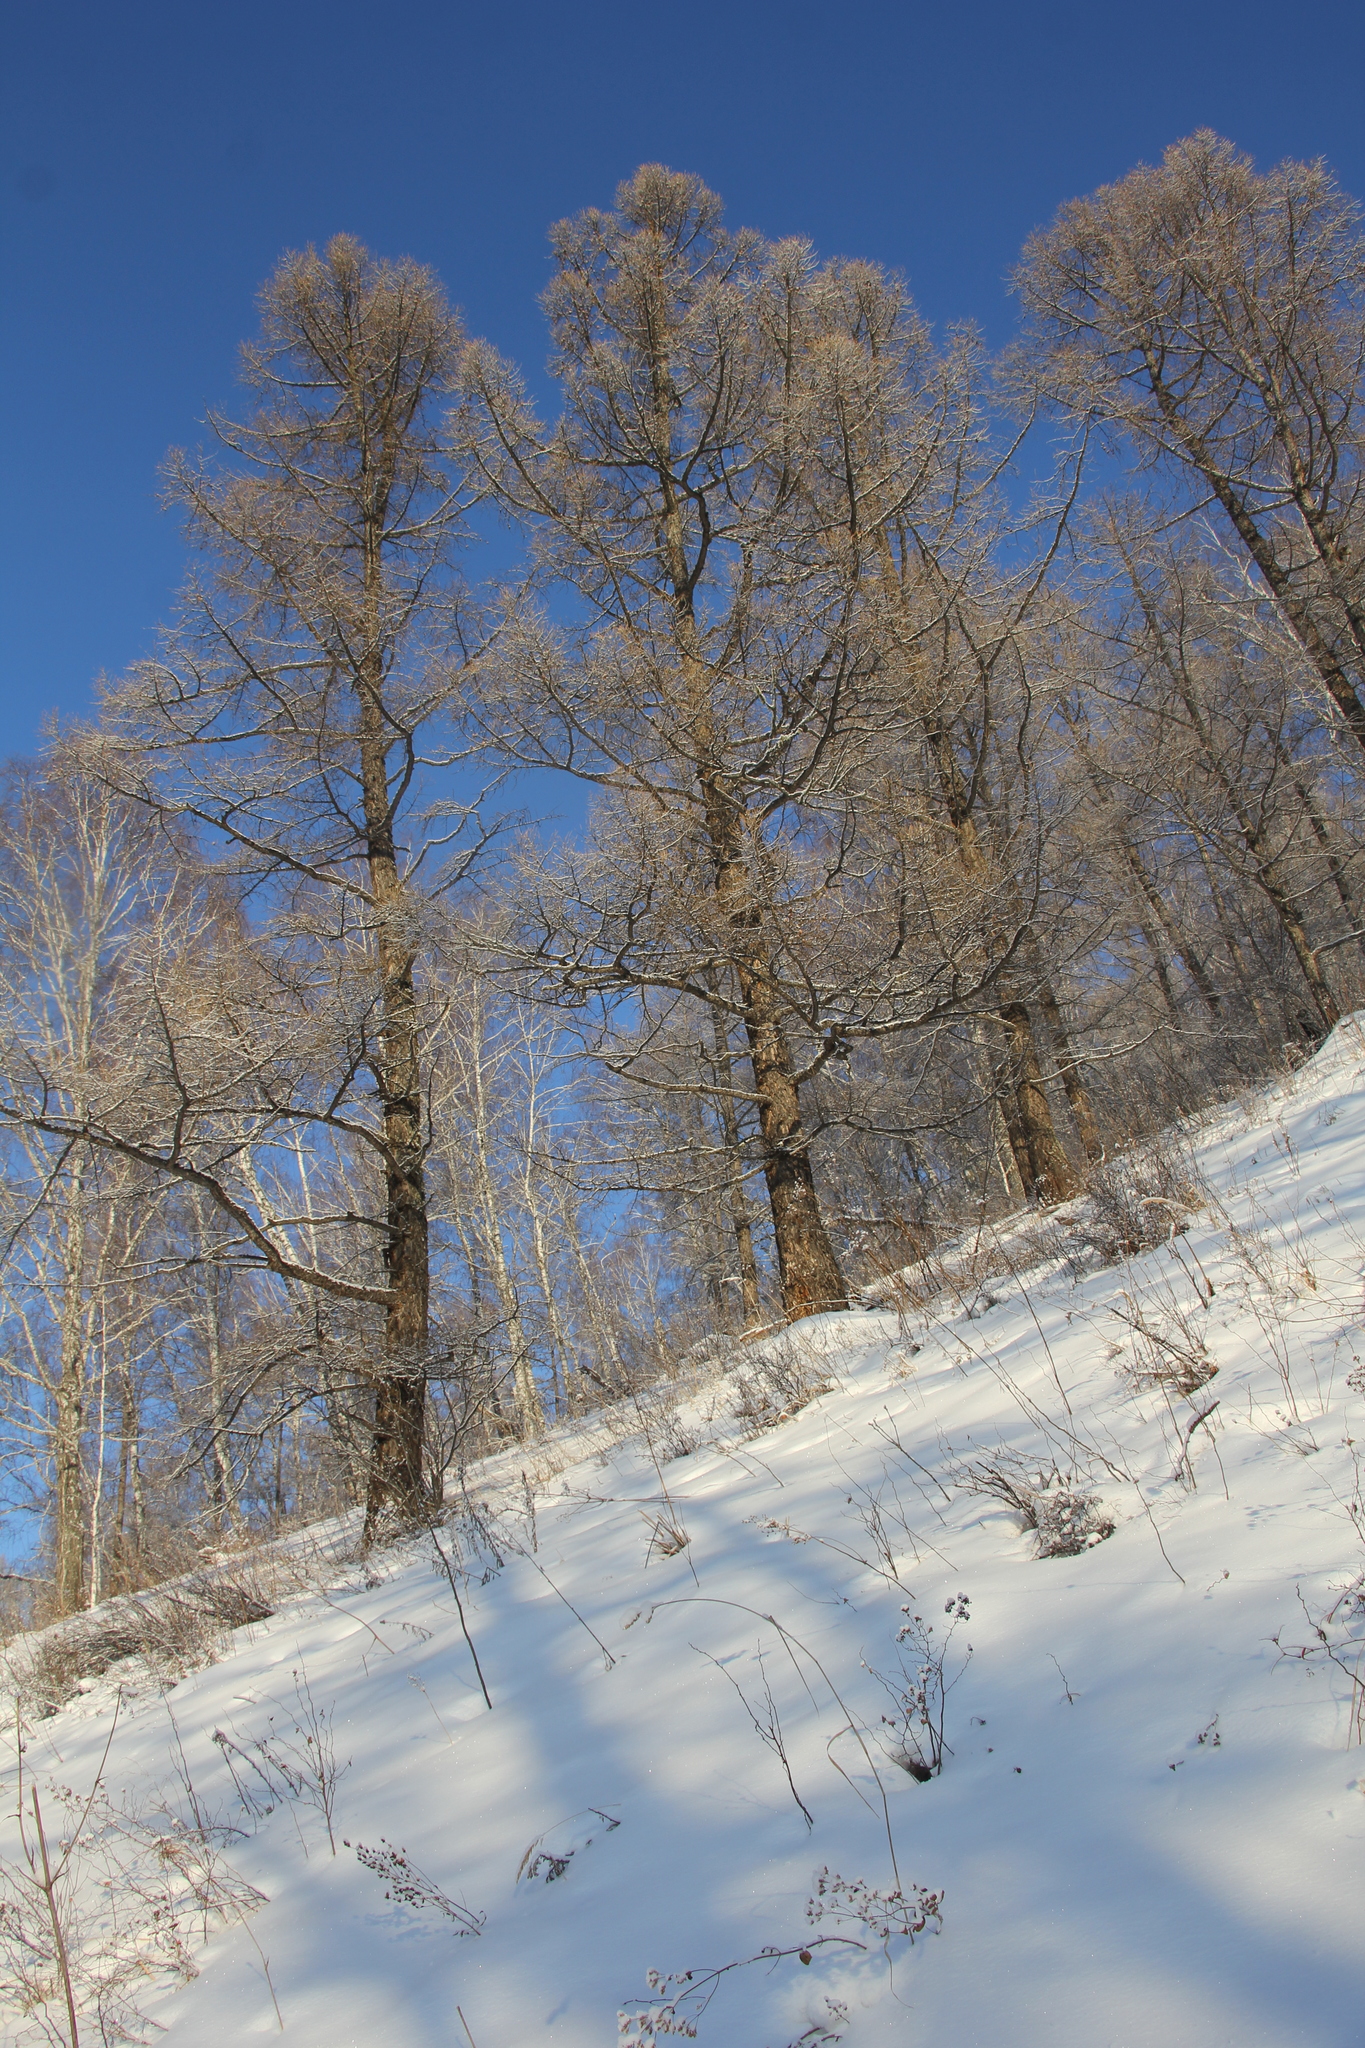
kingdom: Plantae
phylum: Tracheophyta
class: Pinopsida
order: Pinales
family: Pinaceae
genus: Larix
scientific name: Larix sibirica
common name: Siberian larch
